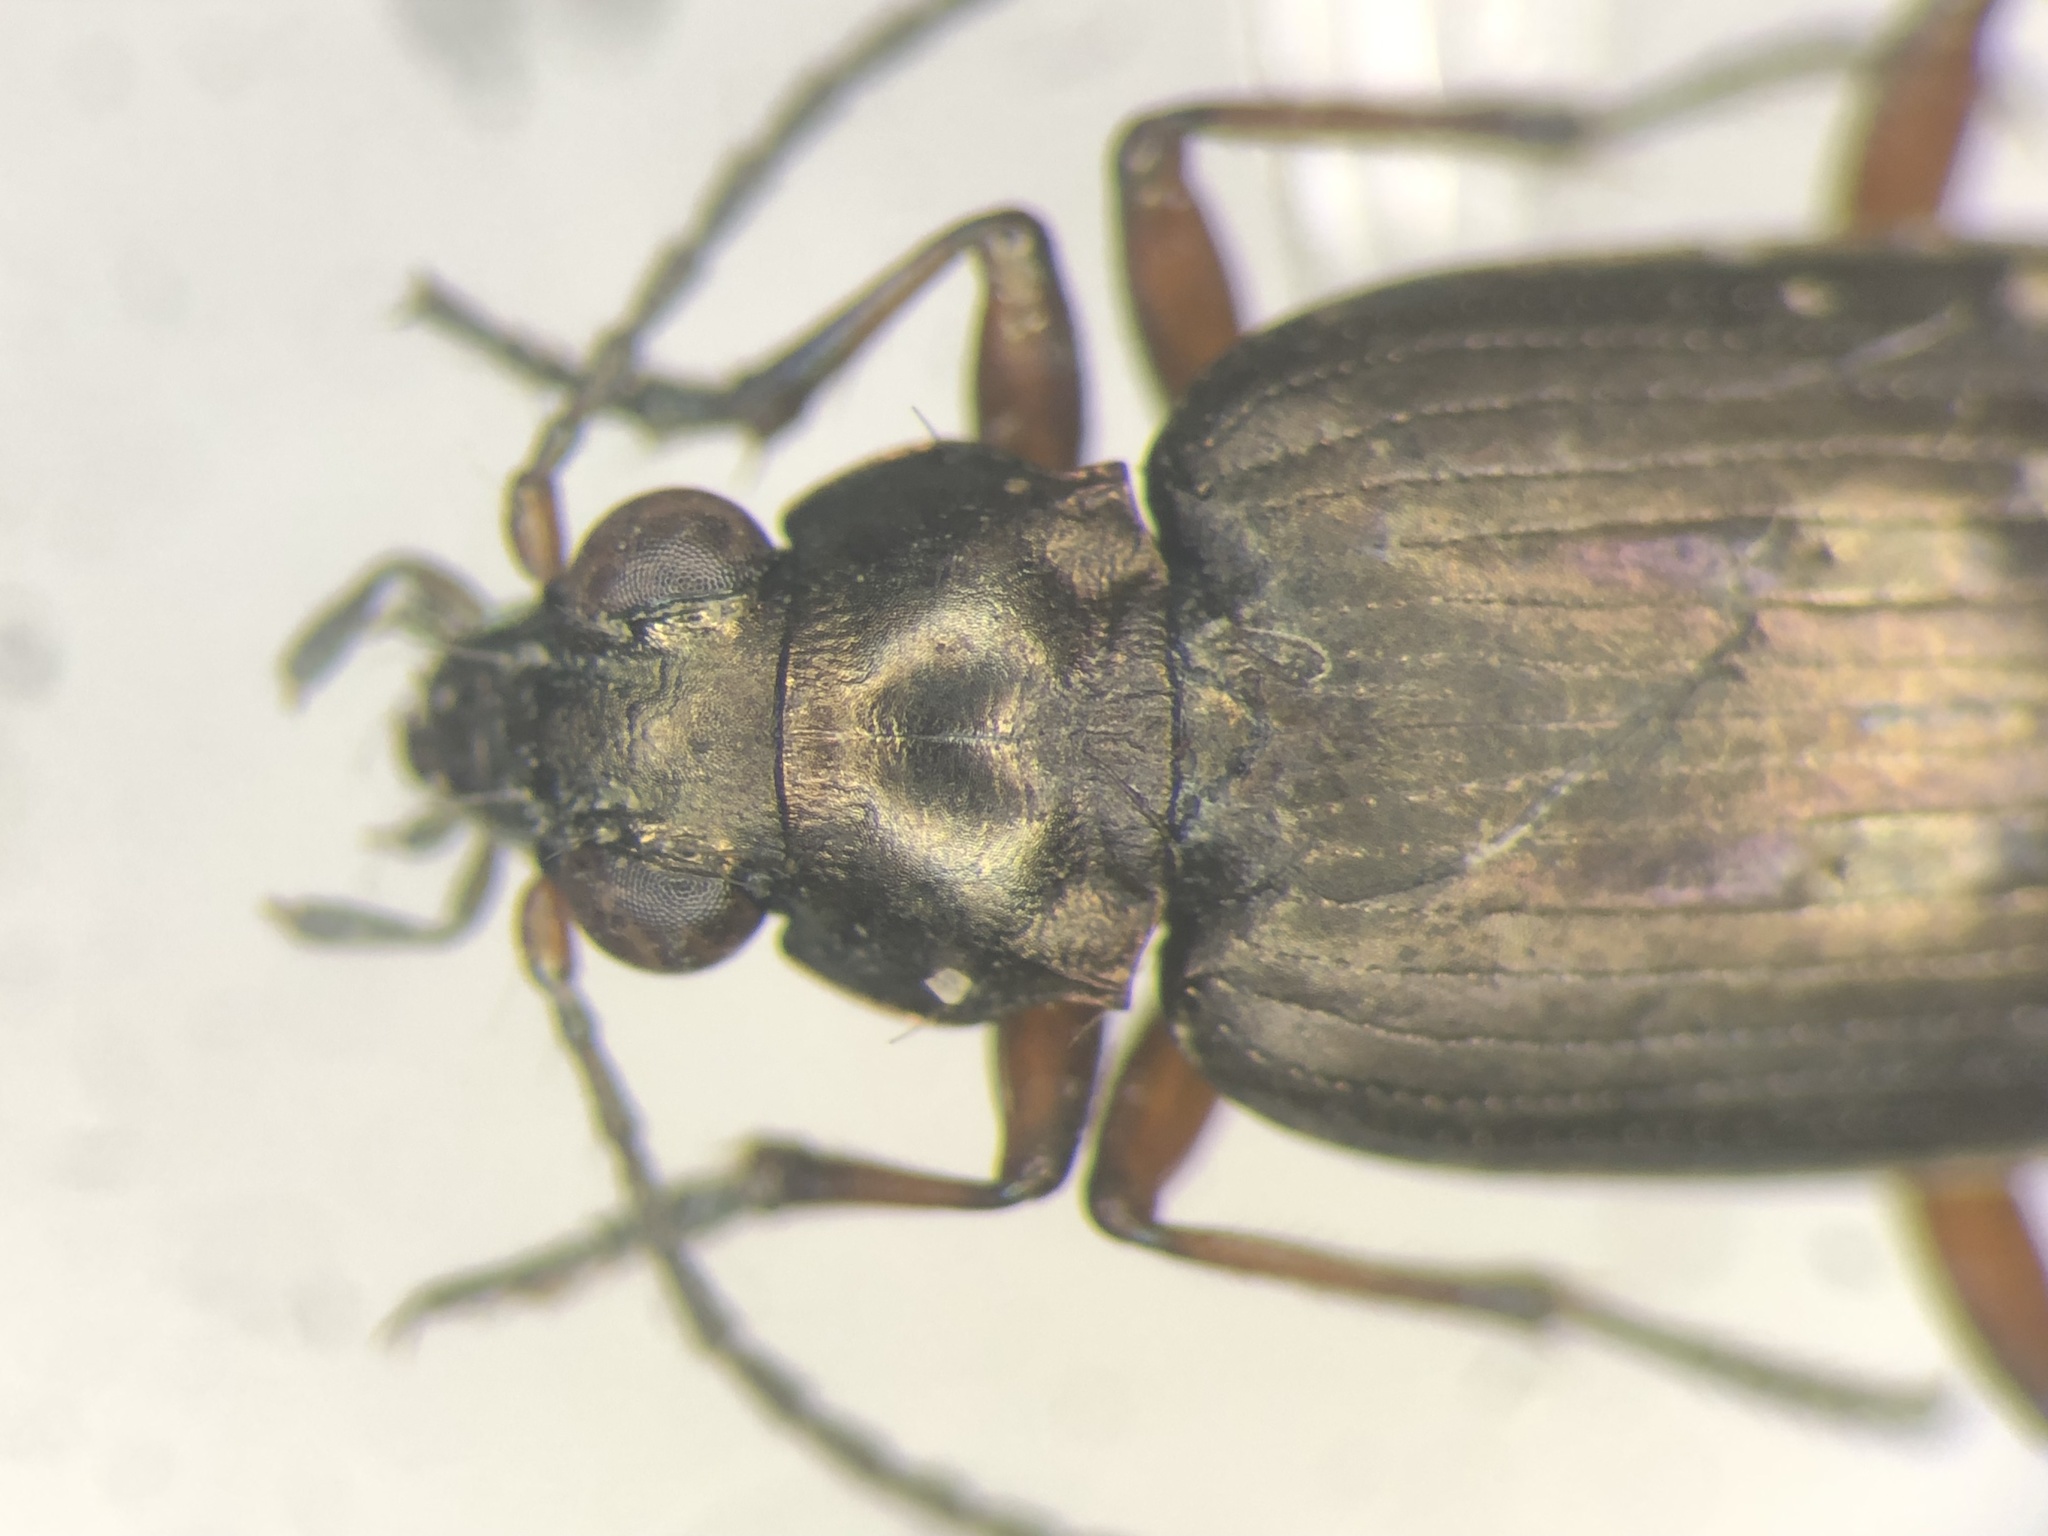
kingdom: Animalia
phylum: Arthropoda
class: Insecta
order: Coleoptera
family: Carabidae
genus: Bembidion
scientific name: Bembidion carinula
